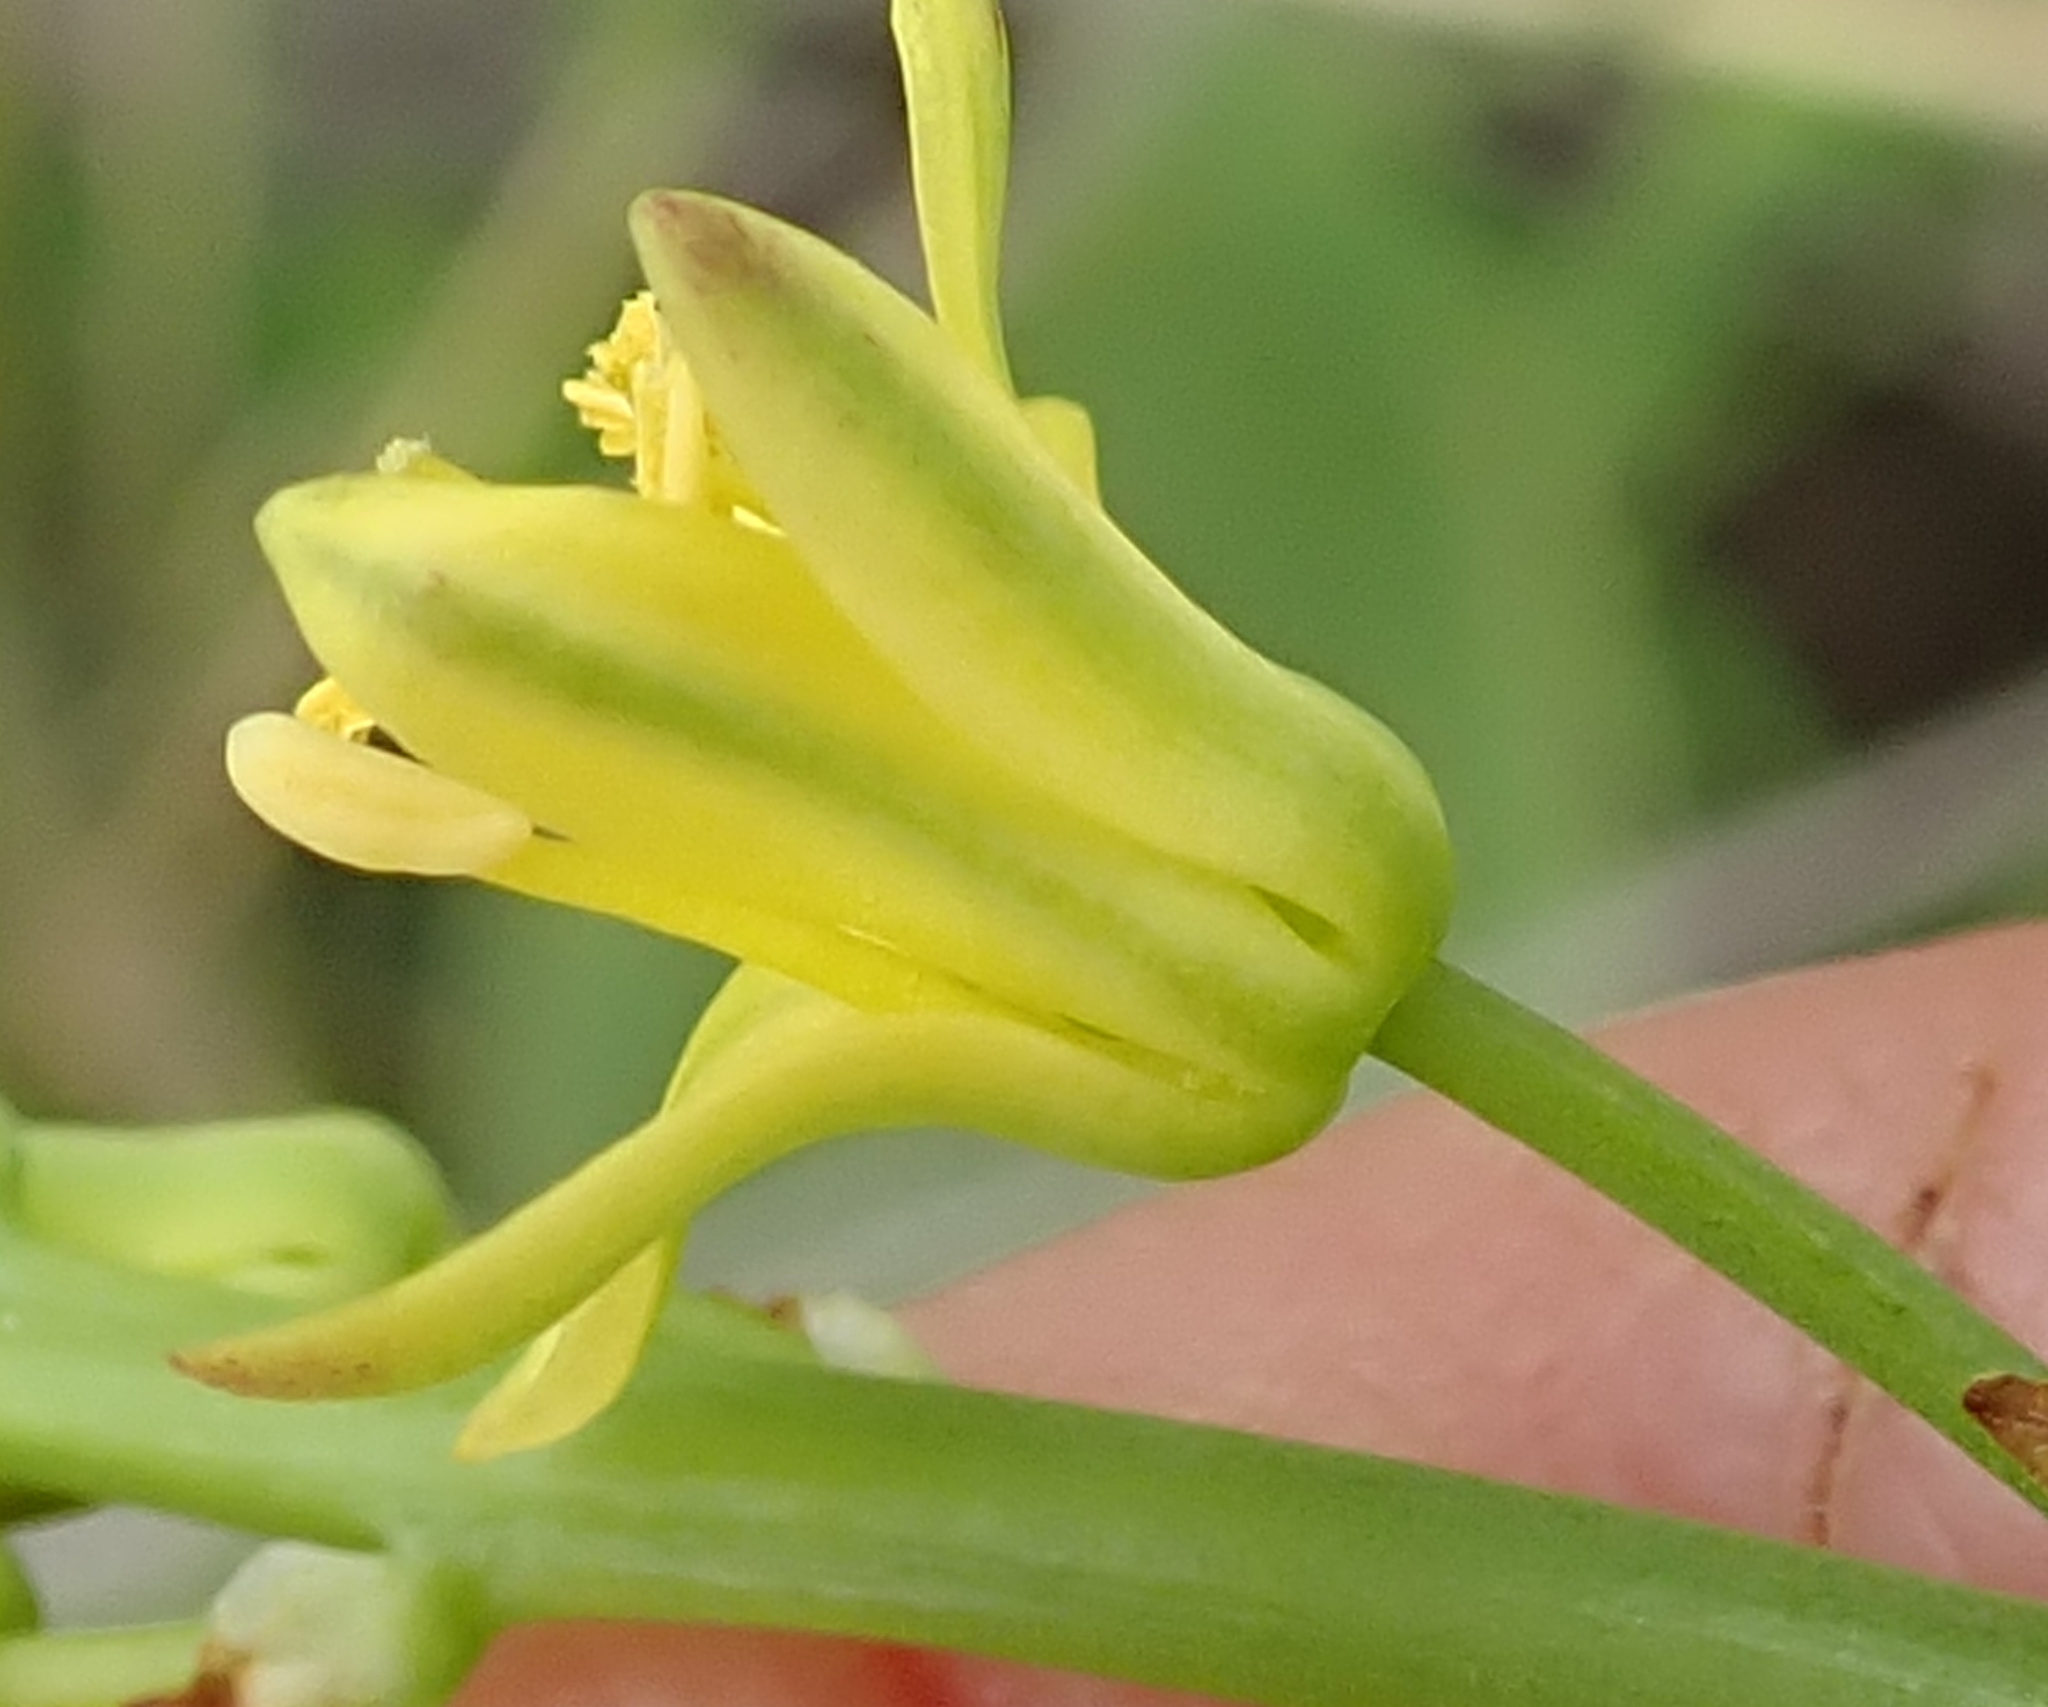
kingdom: Plantae
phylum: Tracheophyta
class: Liliopsida
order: Asparagales
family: Asparagaceae
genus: Eriospermum
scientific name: Eriospermum mackenii
